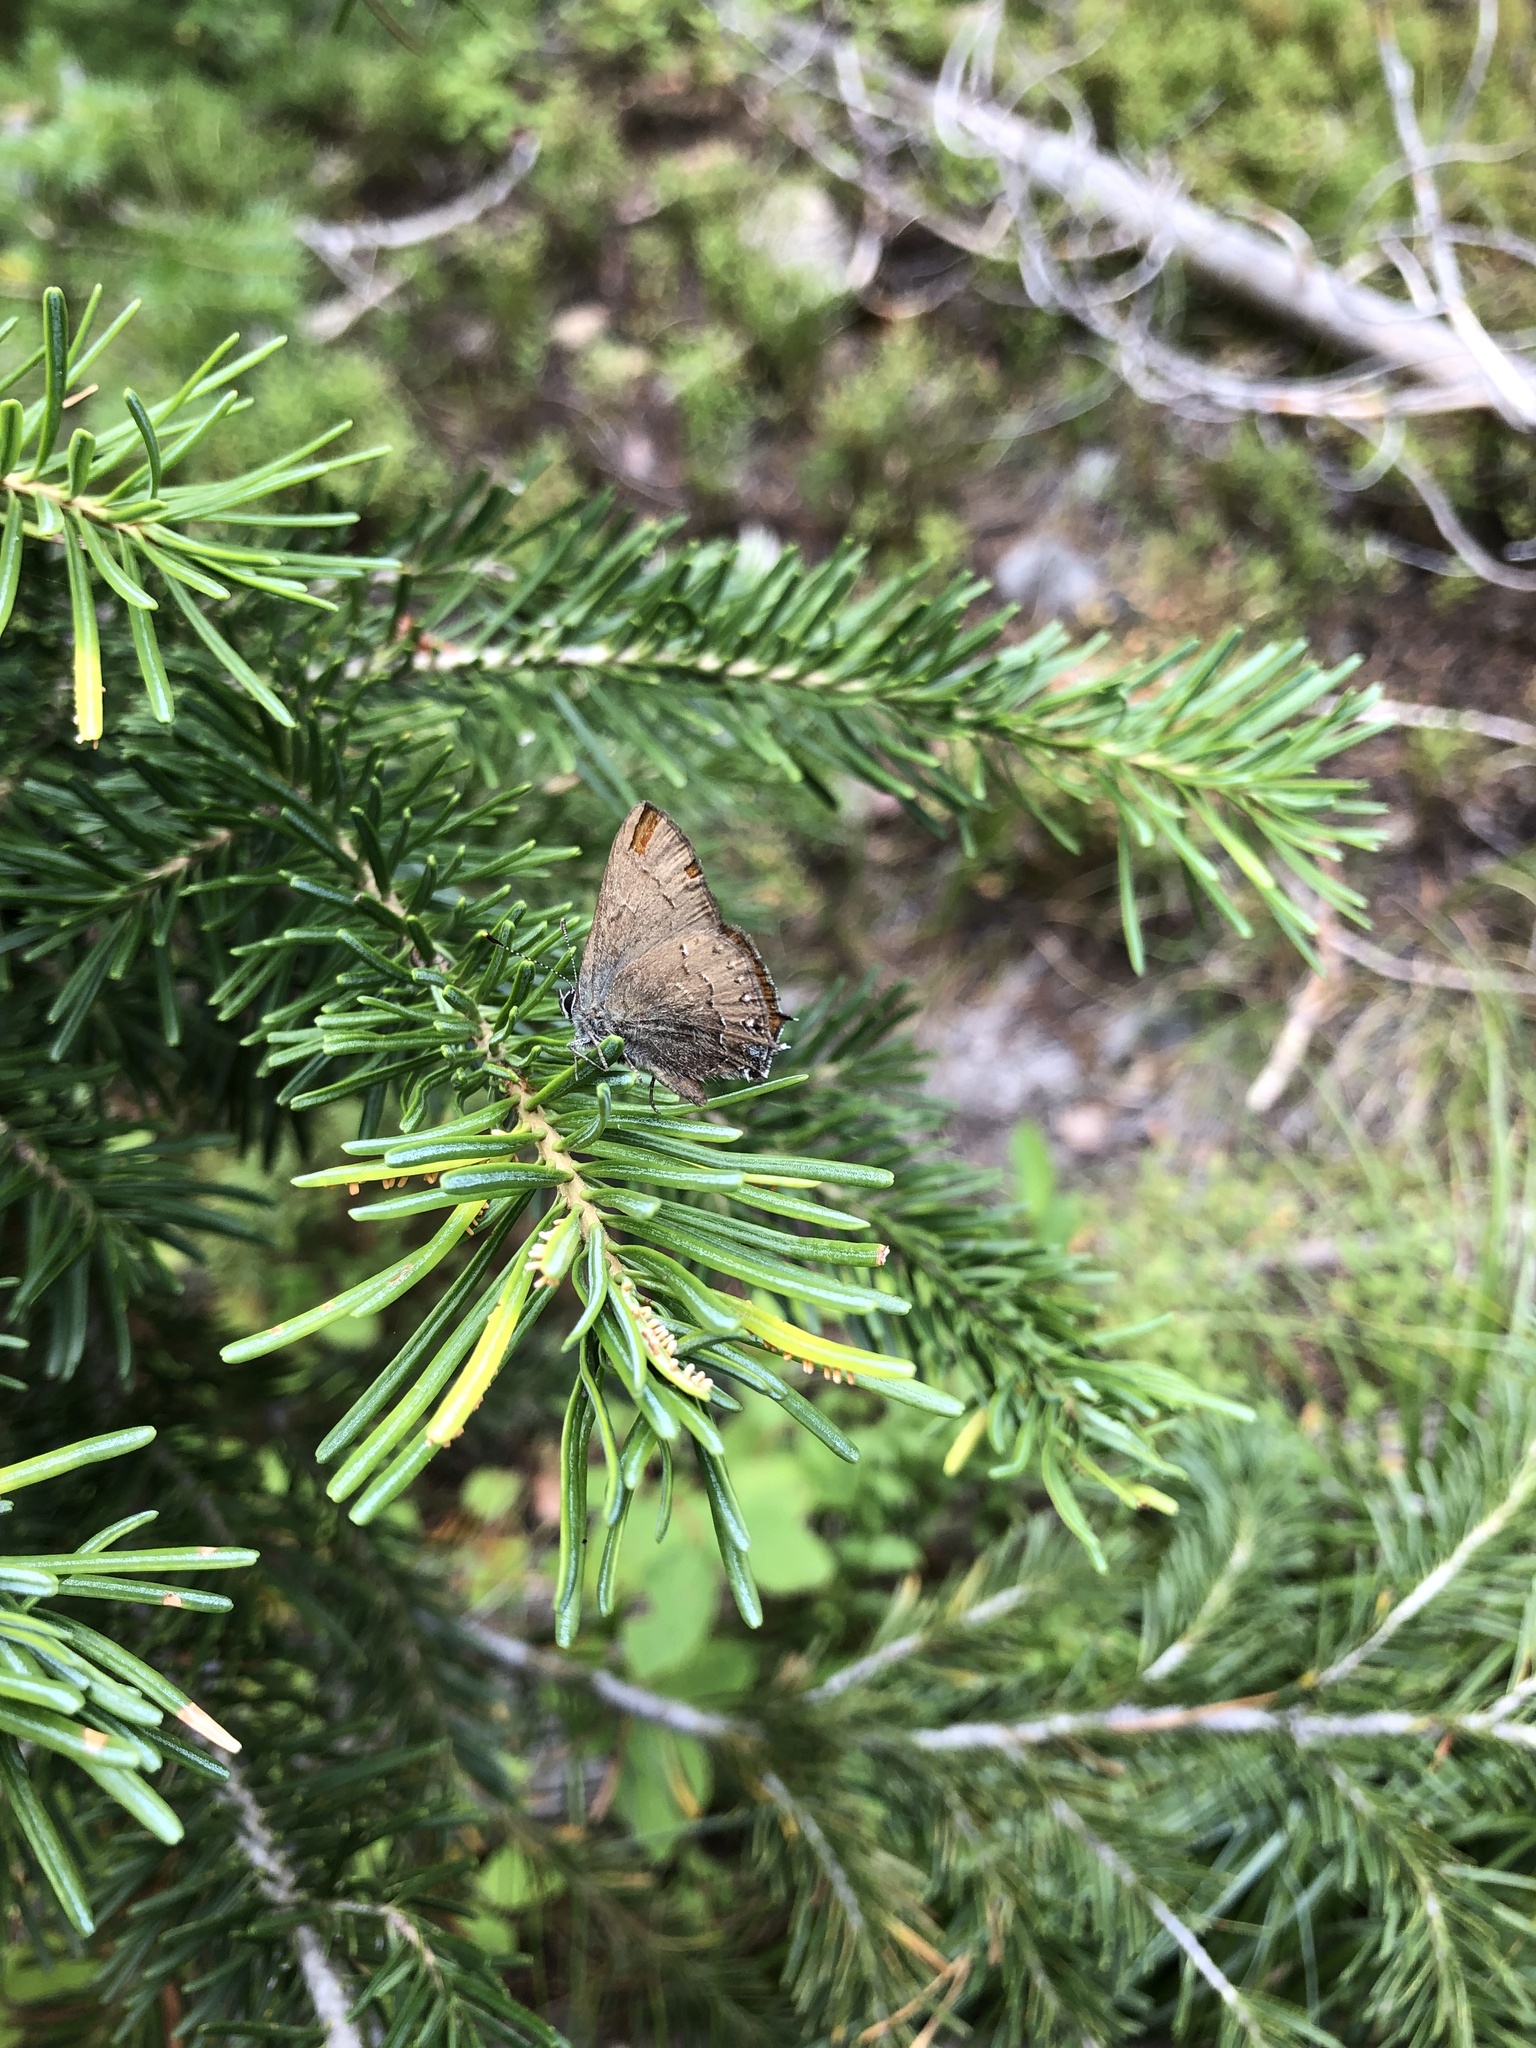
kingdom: Animalia
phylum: Arthropoda
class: Insecta
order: Lepidoptera
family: Lycaenidae
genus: Strymon
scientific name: Strymon saepium
